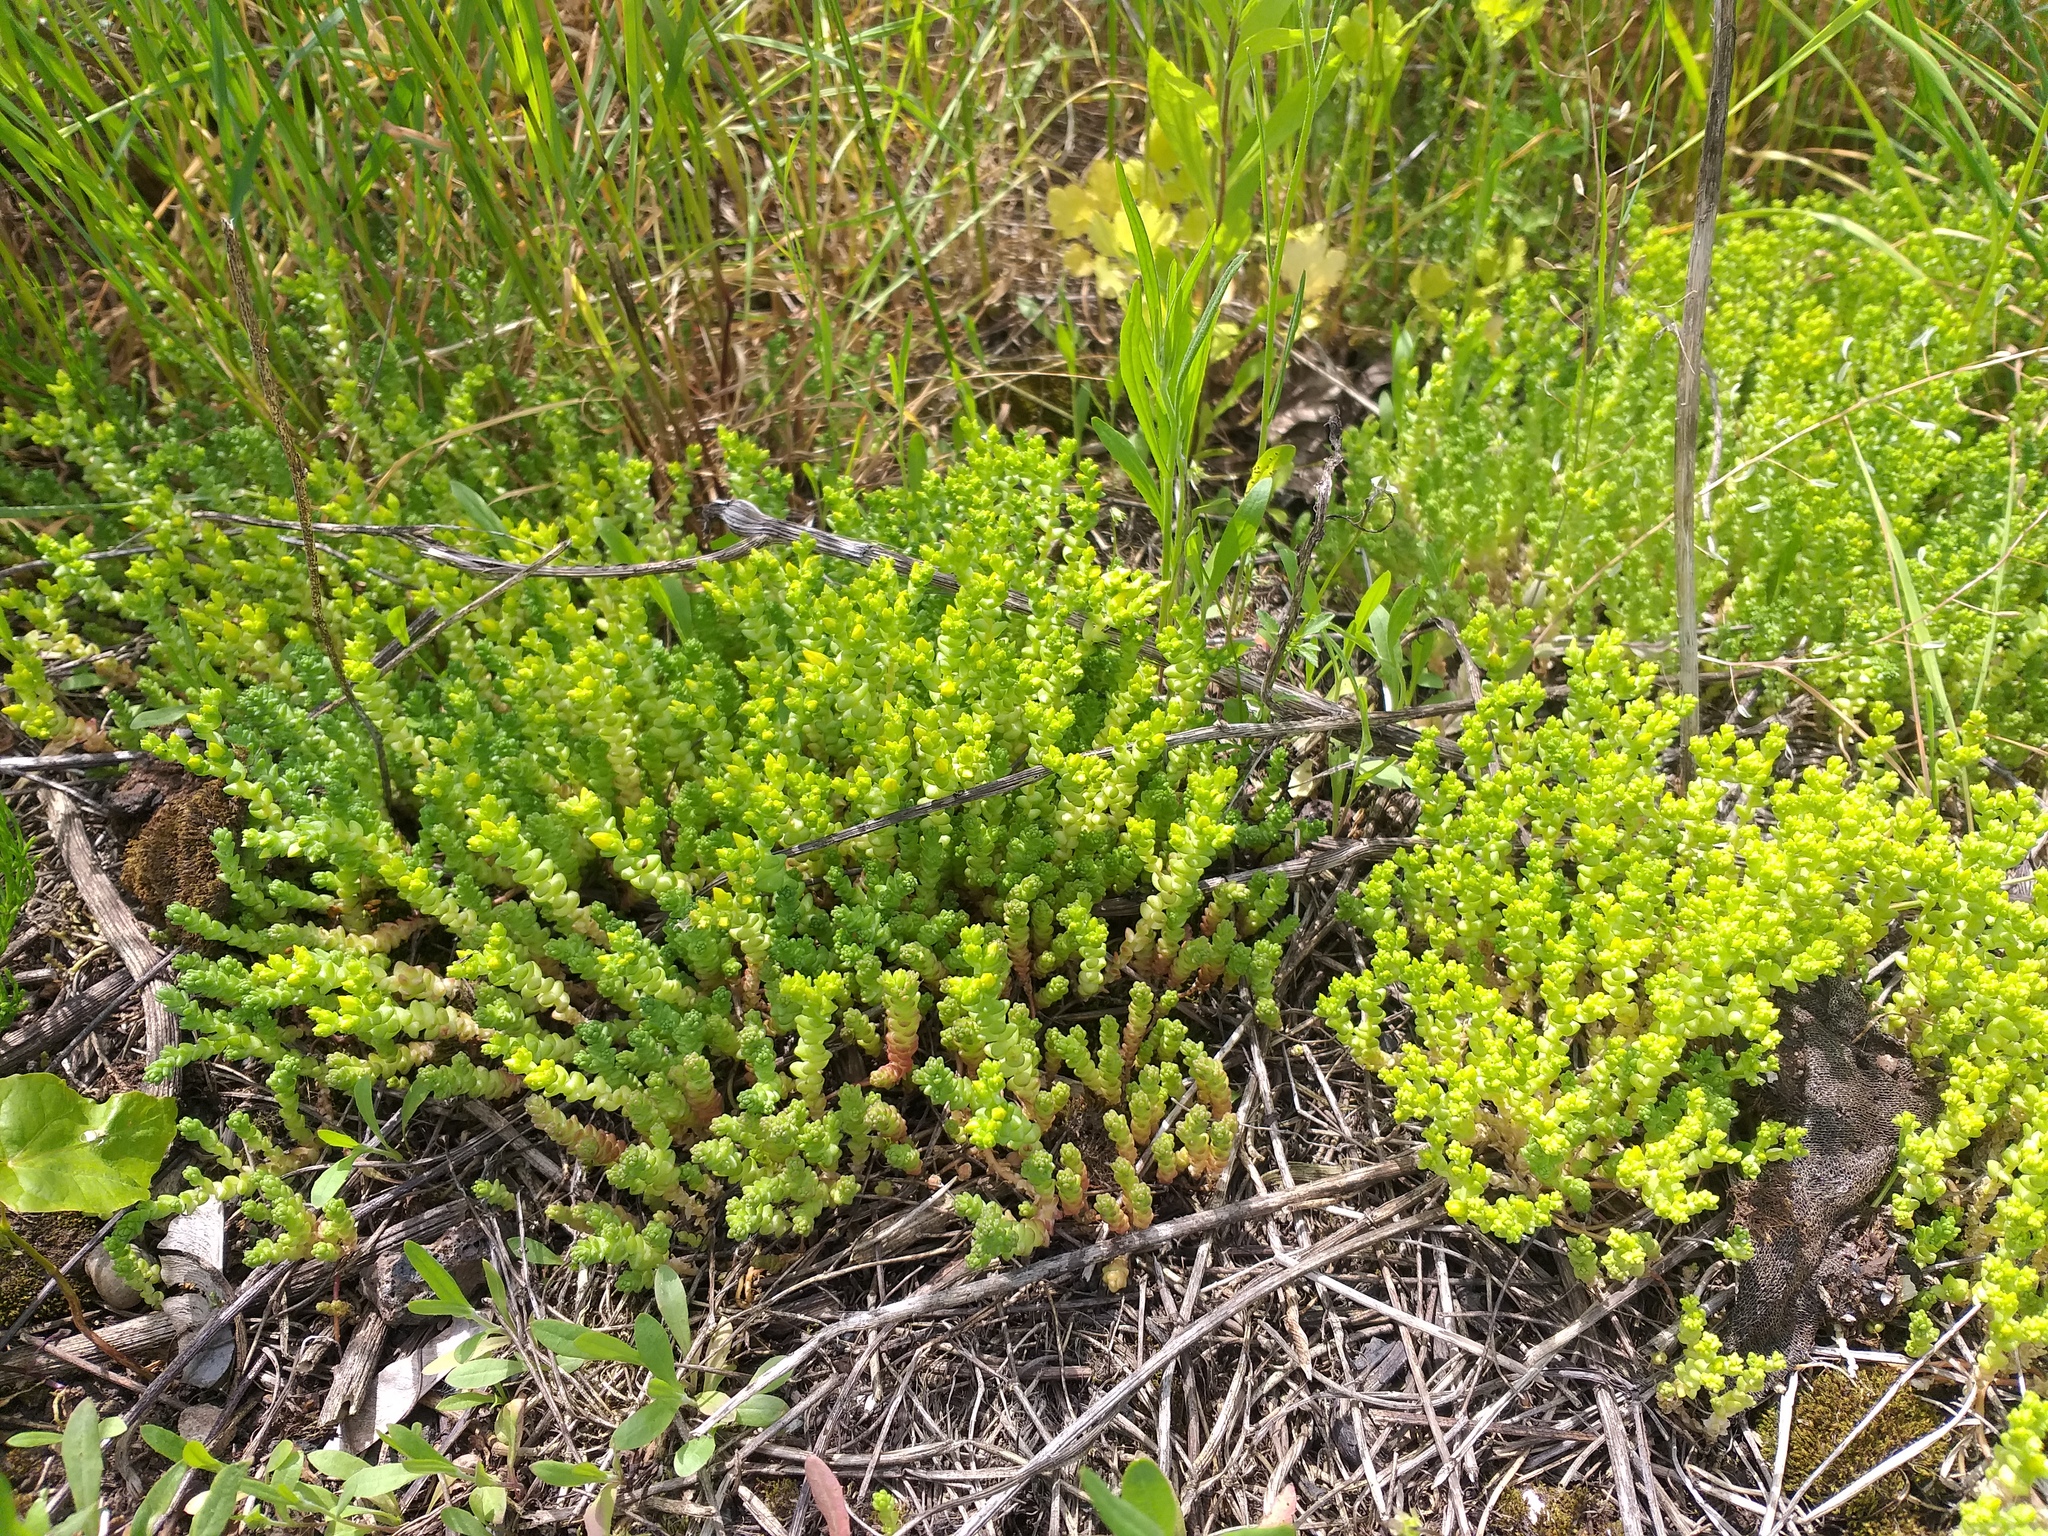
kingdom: Plantae
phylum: Tracheophyta
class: Magnoliopsida
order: Saxifragales
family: Crassulaceae
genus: Sedum
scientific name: Sedum acre
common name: Biting stonecrop
